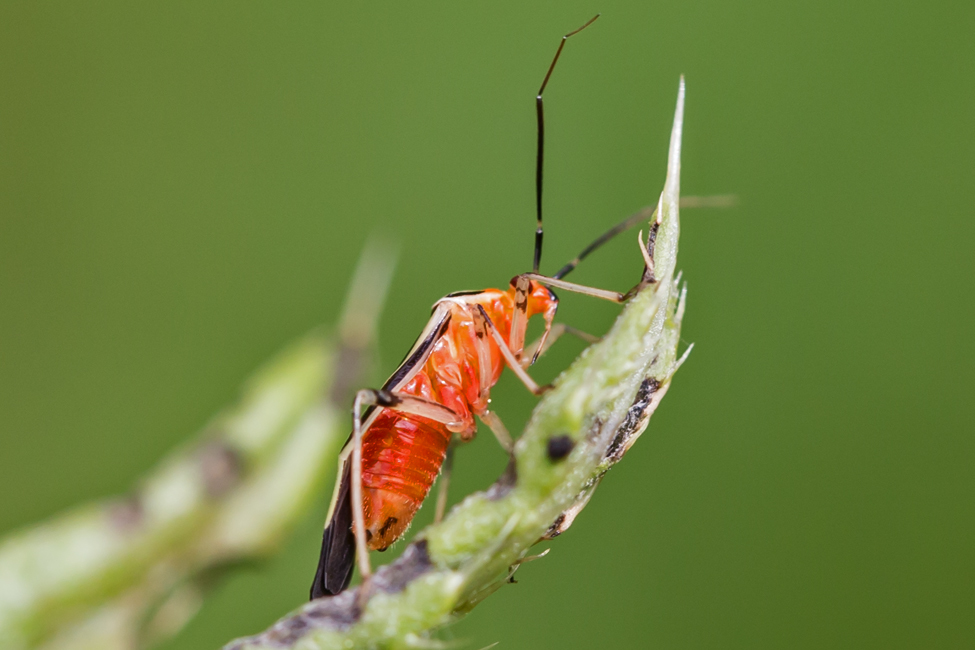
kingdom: Animalia
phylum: Arthropoda
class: Insecta
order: Hemiptera
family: Miridae
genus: Poecilocapsus
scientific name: Poecilocapsus lineatus
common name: Four-lined plant bug
